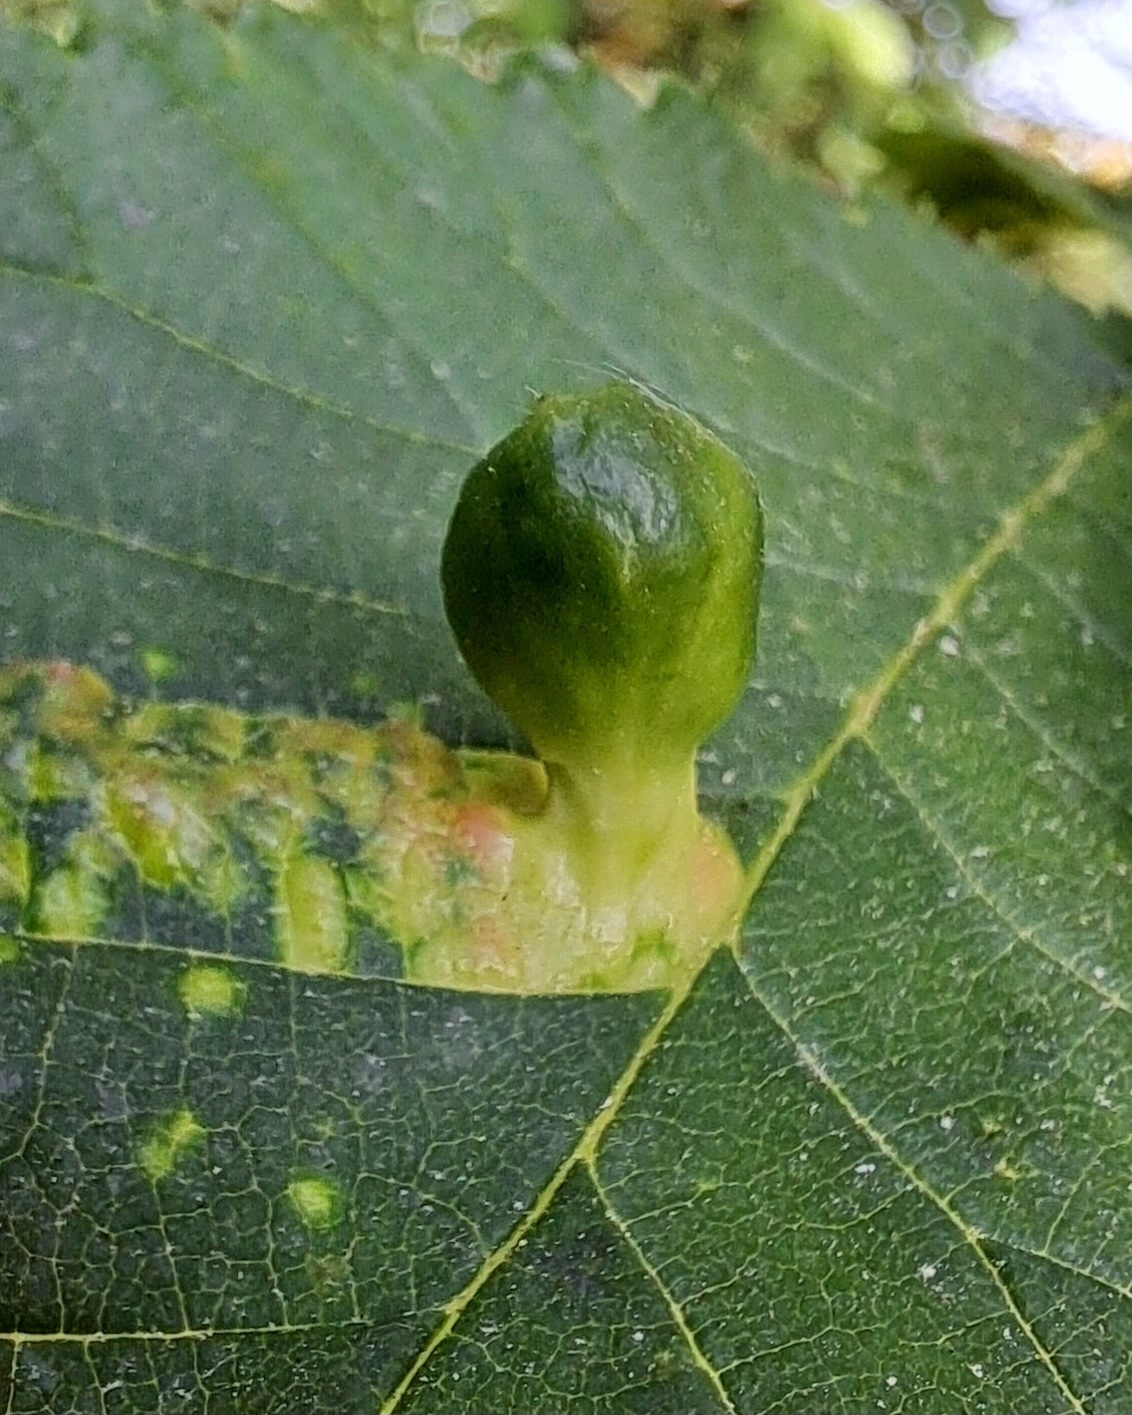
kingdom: Animalia
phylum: Arthropoda
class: Insecta
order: Hemiptera
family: Aphididae
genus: Tetraneura
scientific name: Tetraneura ulmi
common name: Aphid
